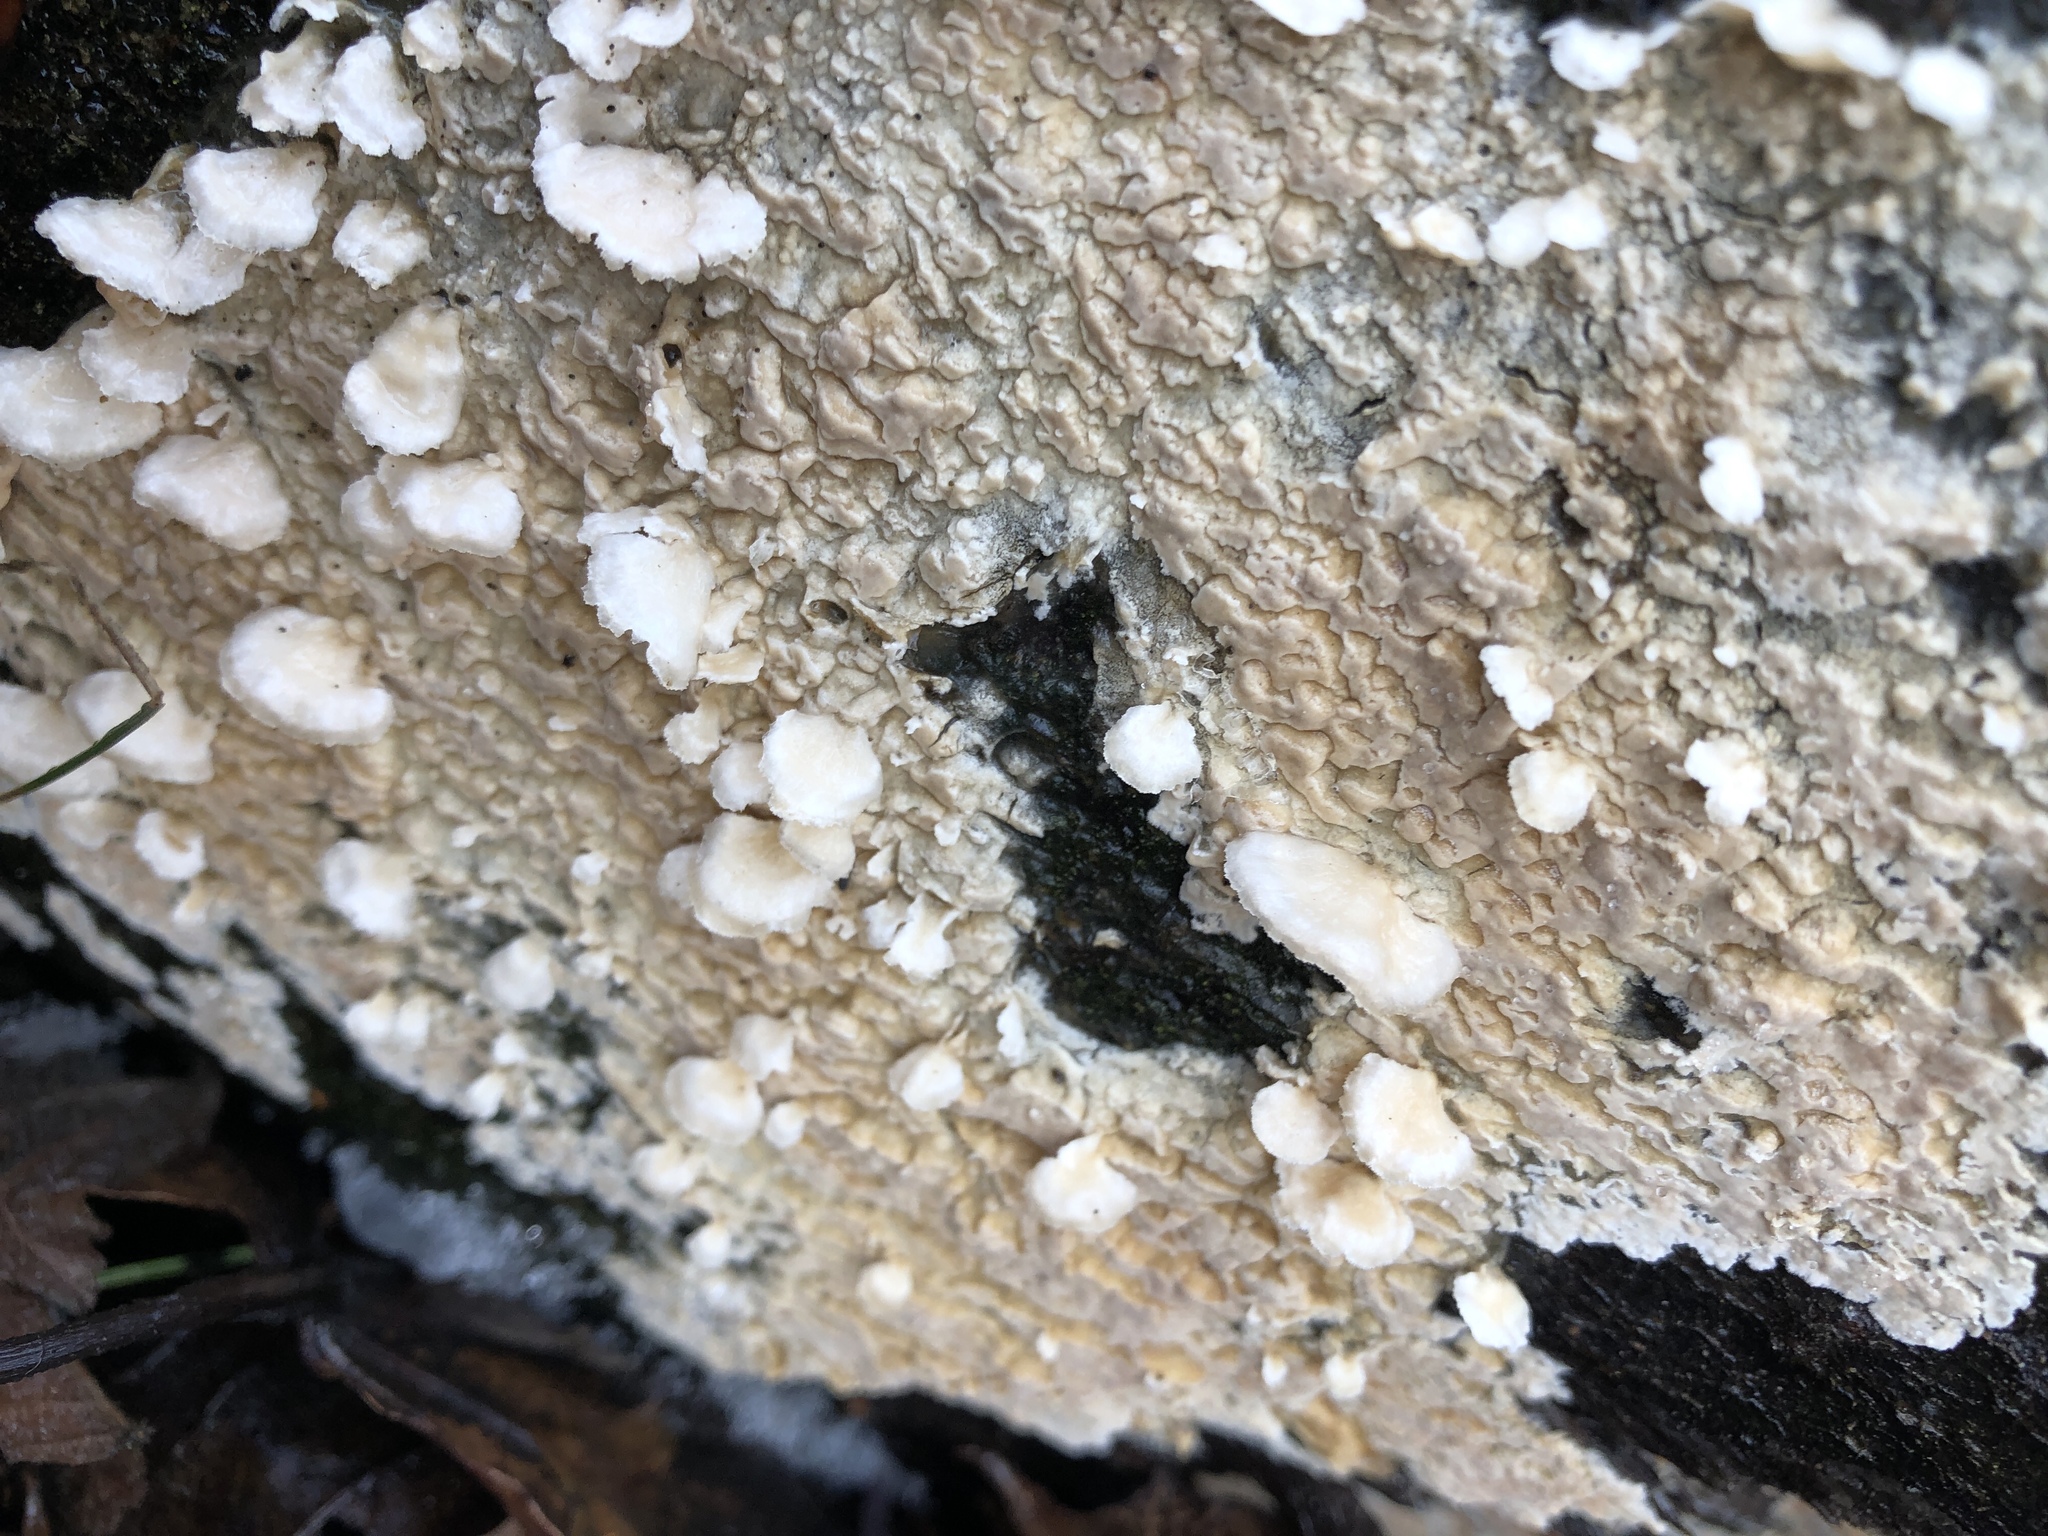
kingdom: Fungi
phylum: Basidiomycota
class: Agaricomycetes
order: Agaricales
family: Schizophyllaceae
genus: Schizophyllum
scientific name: Schizophyllum commune
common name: Common porecrust
